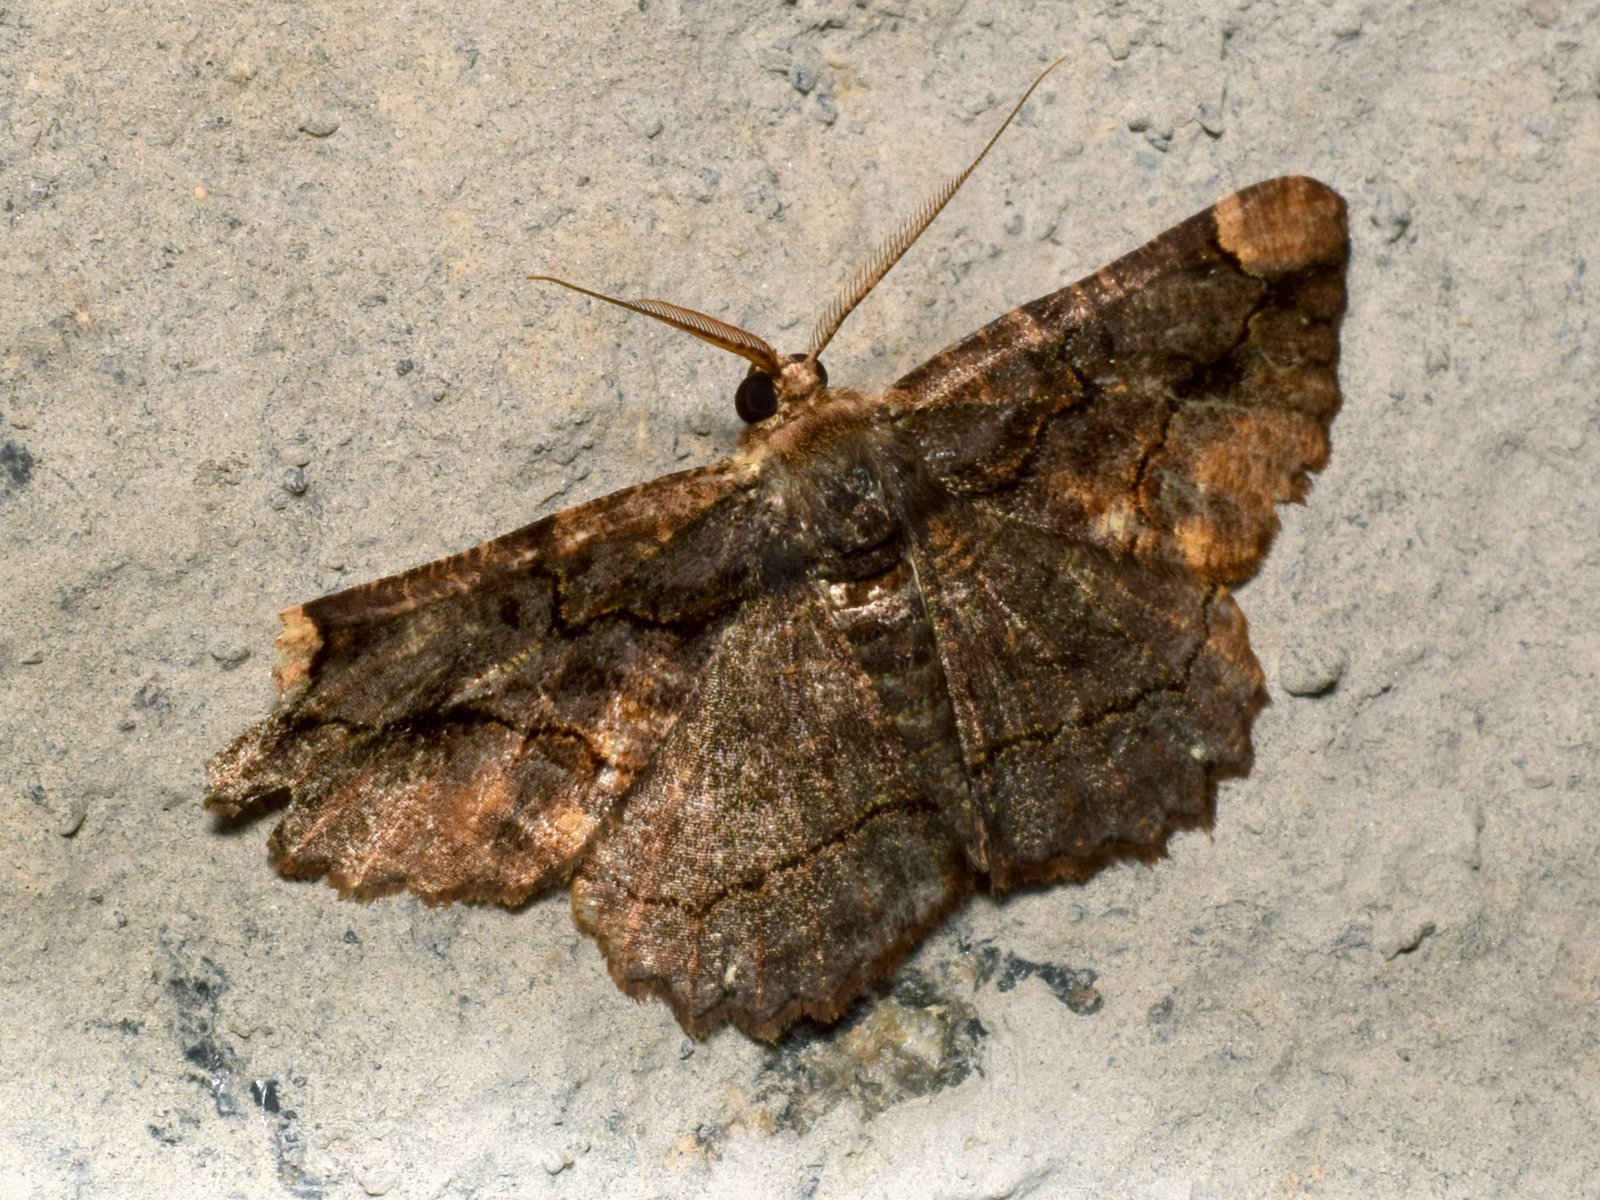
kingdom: Animalia
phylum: Arthropoda
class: Insecta
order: Lepidoptera
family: Geometridae
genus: Dasyboarmia
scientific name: Dasyboarmia subpilosa
